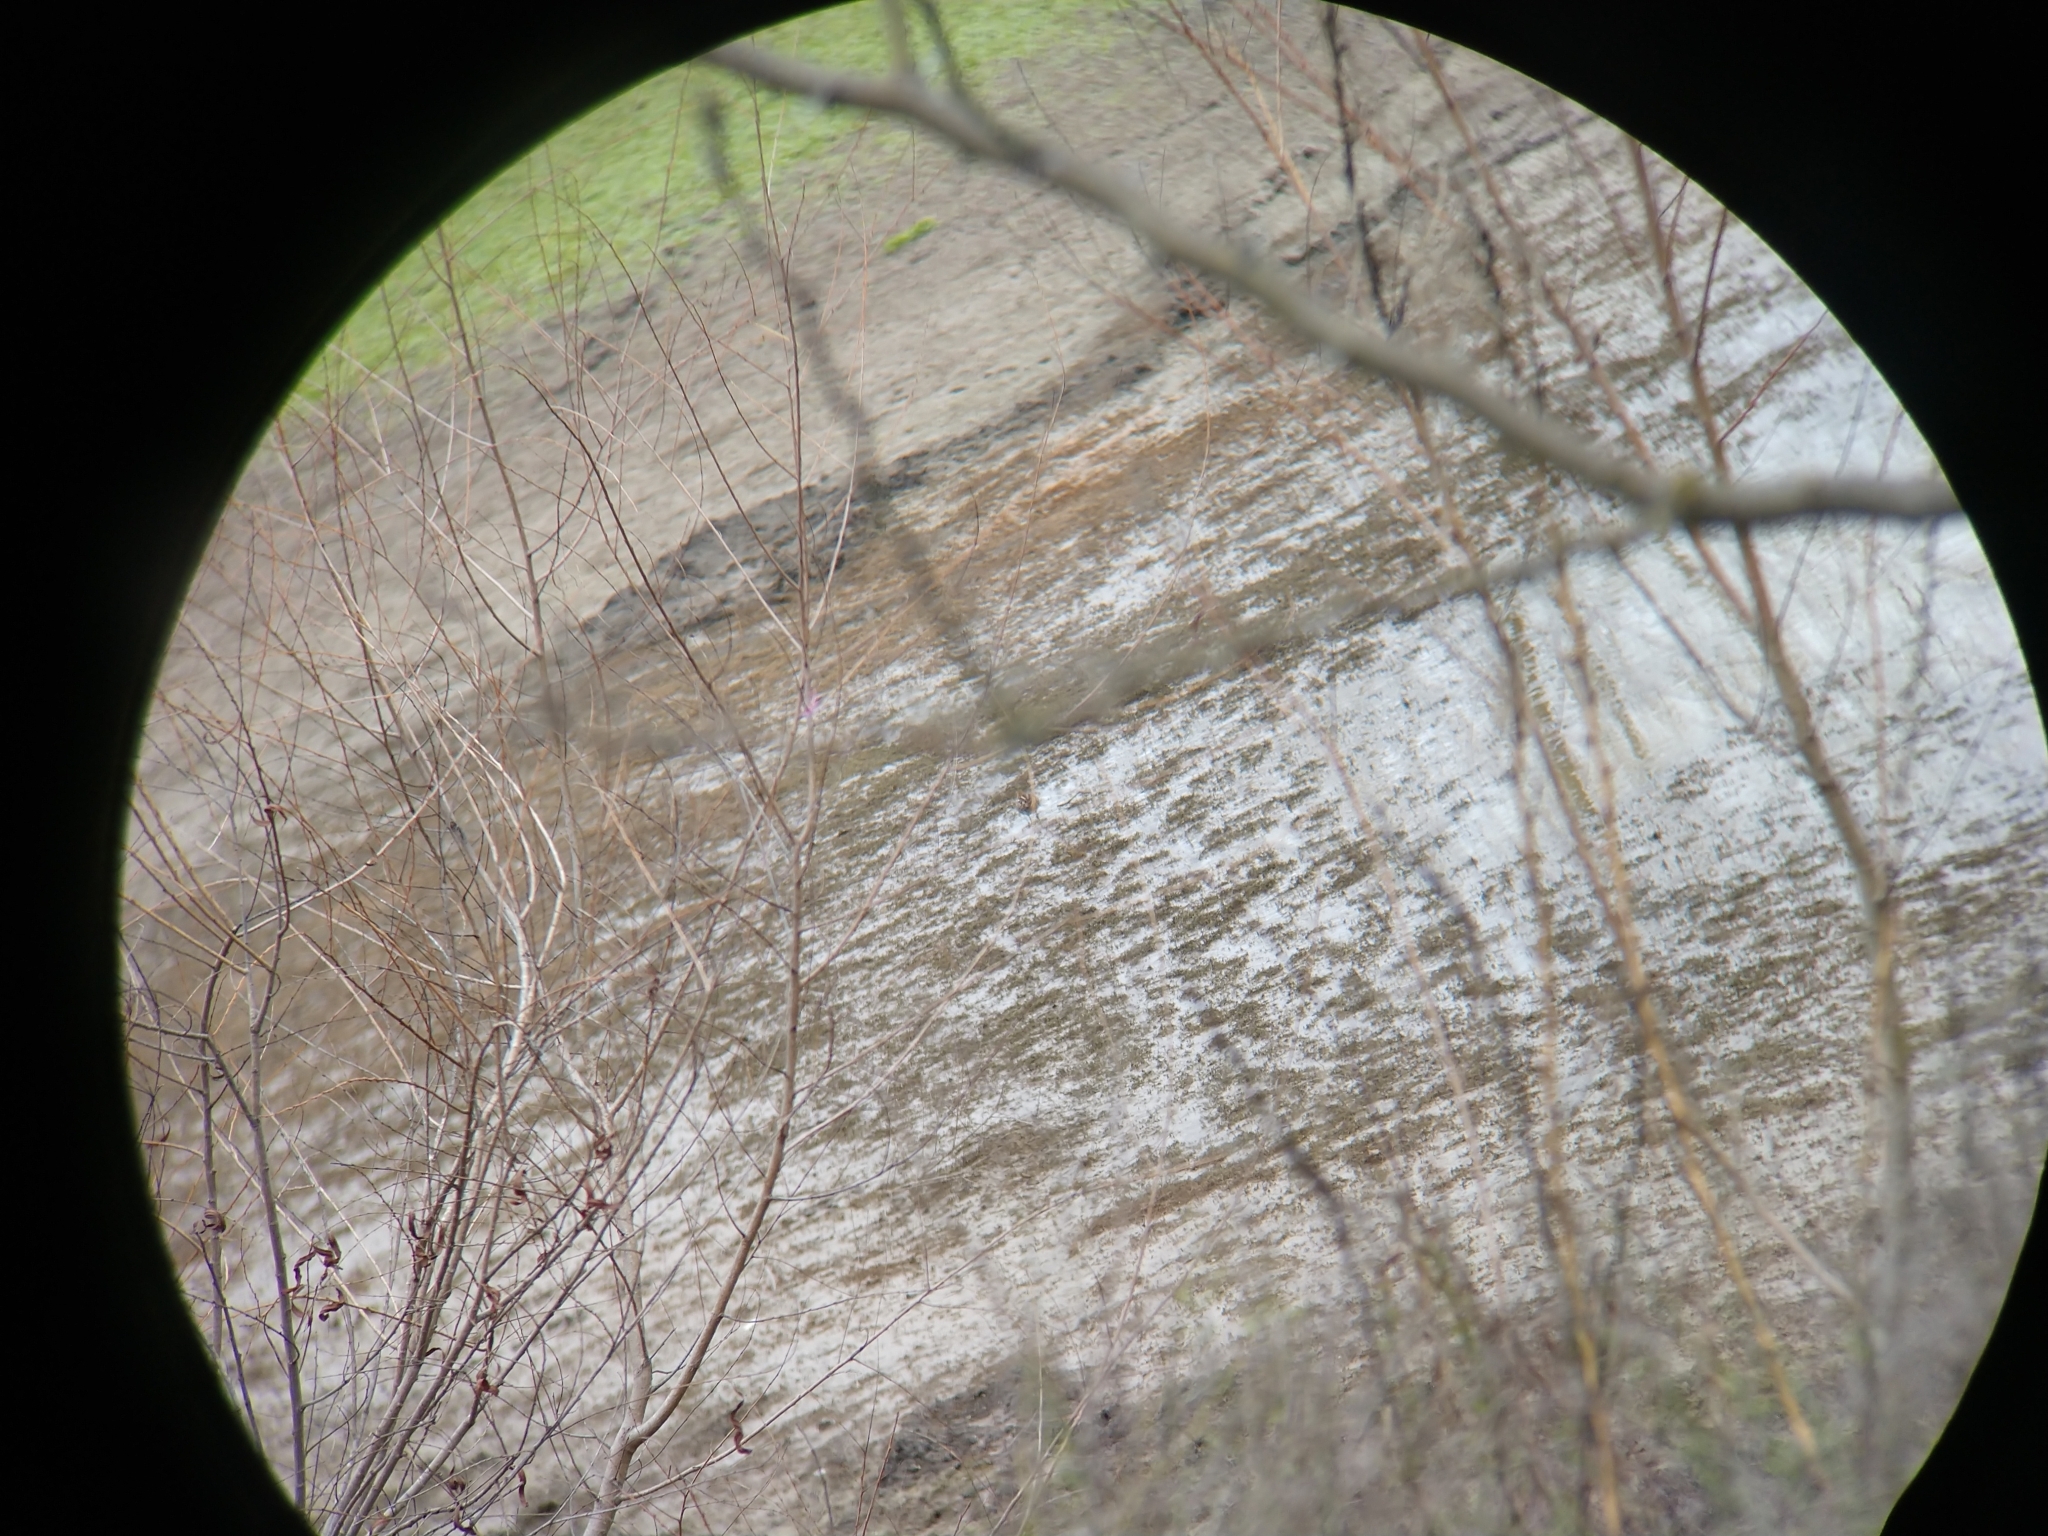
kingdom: Animalia
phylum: Chordata
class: Aves
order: Charadriiformes
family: Scolopacidae
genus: Gallinago
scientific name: Gallinago delicata
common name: Wilson's snipe
